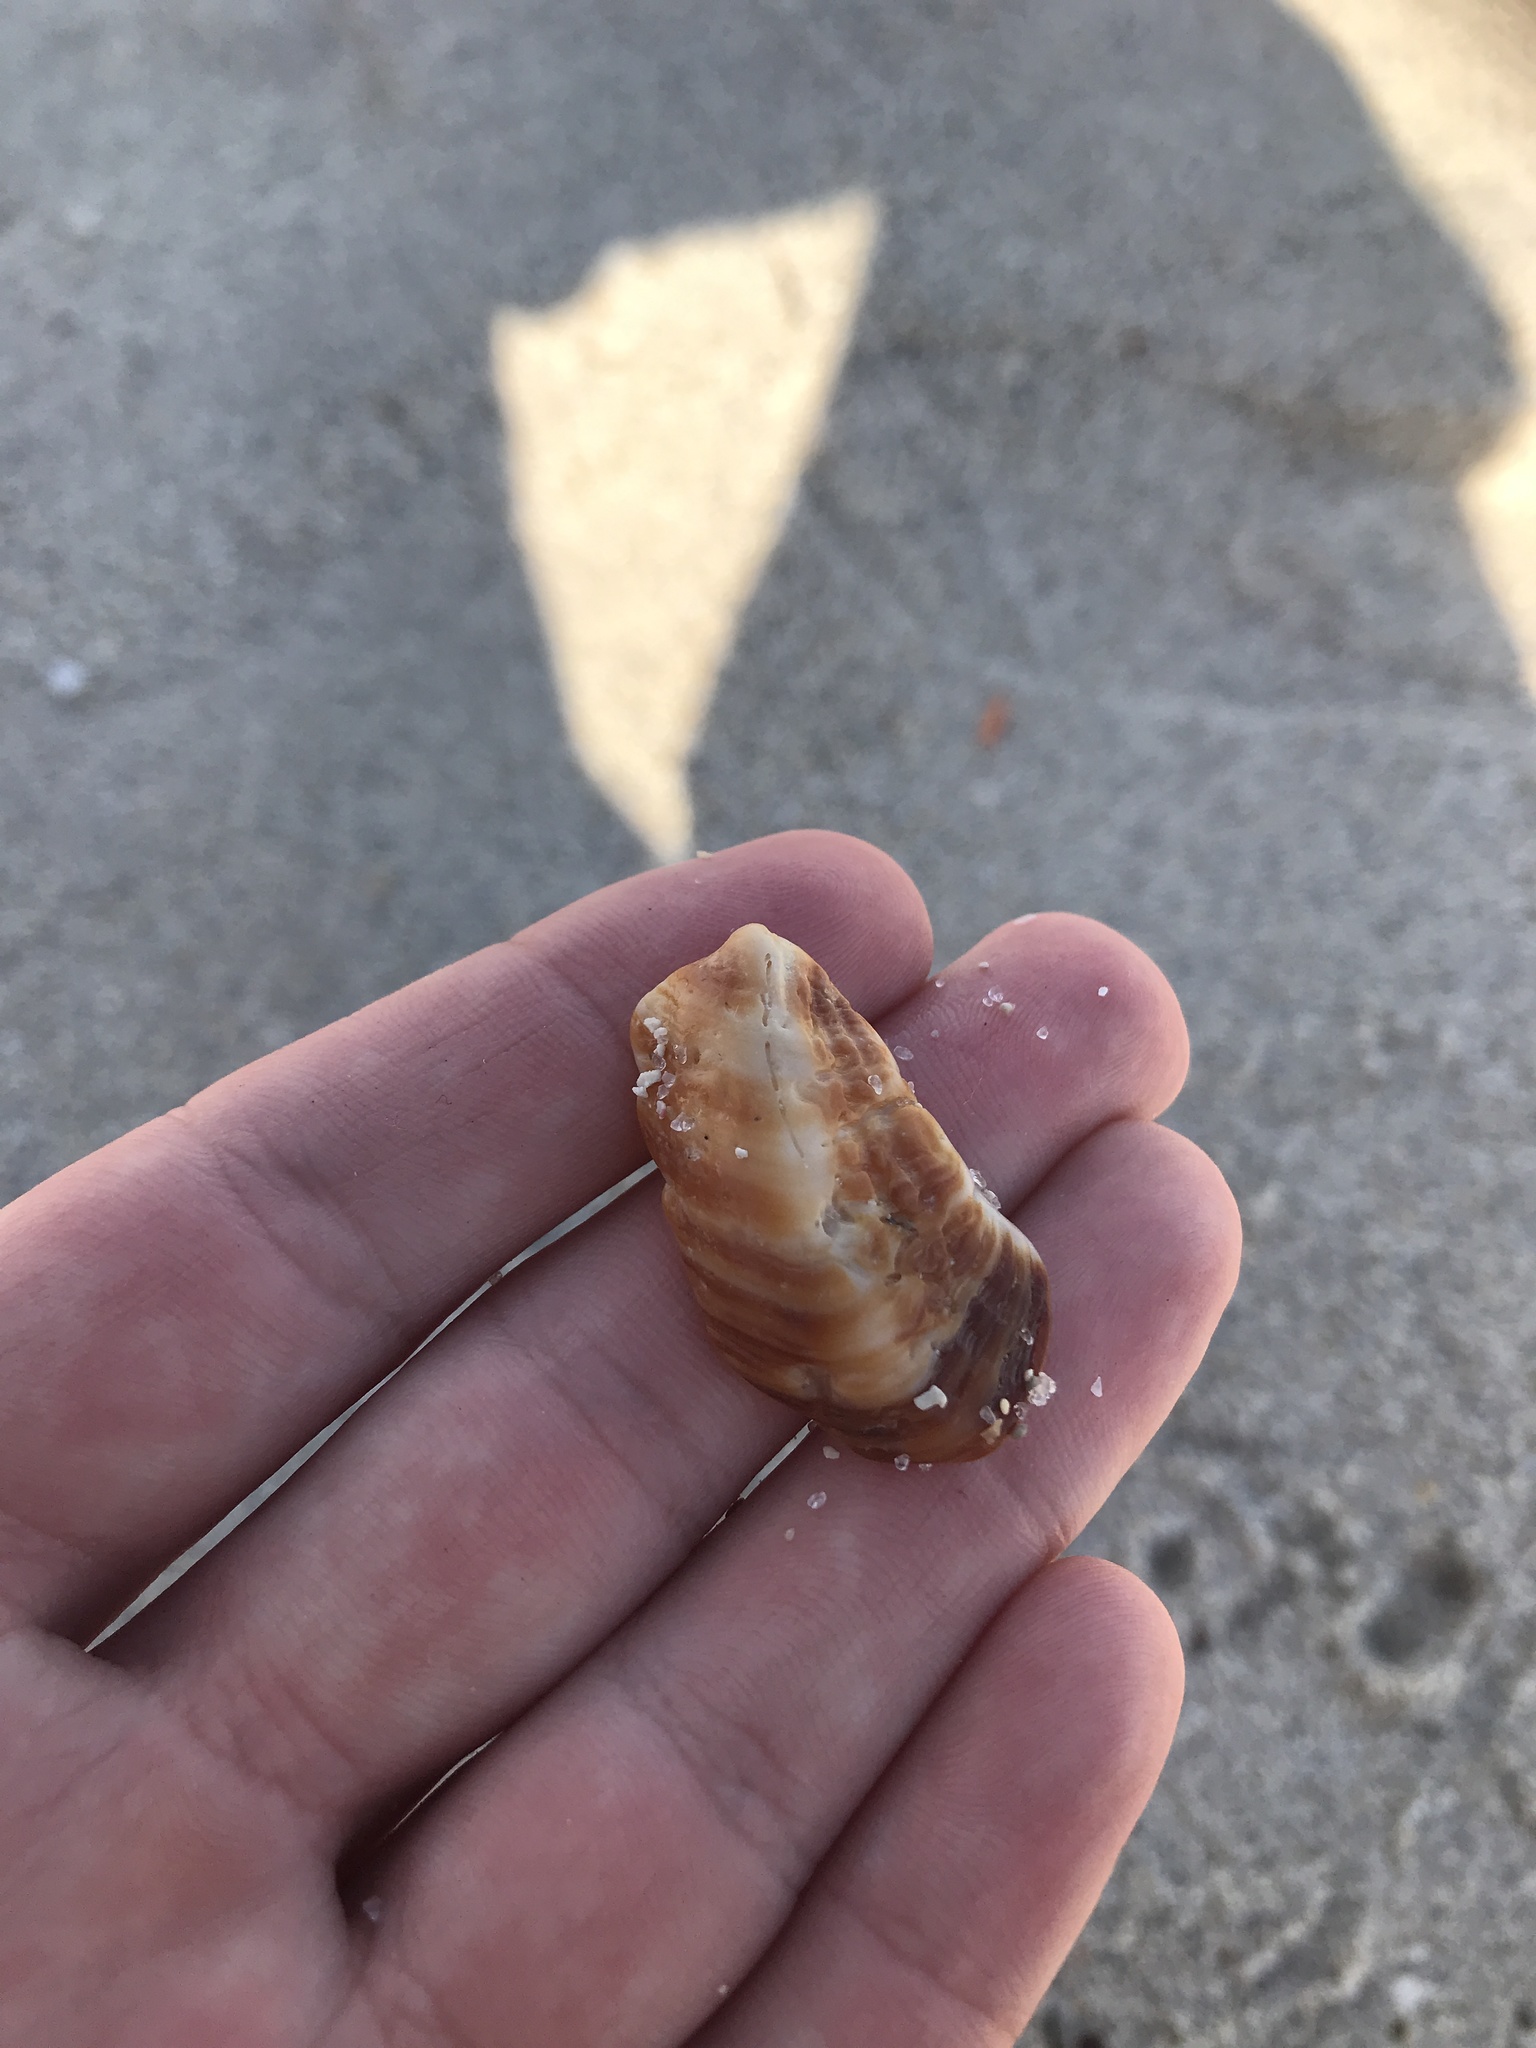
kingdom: Animalia
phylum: Mollusca
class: Bivalvia
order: Arcida
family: Arcidae
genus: Lamarcka
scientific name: Lamarcka imbricata
